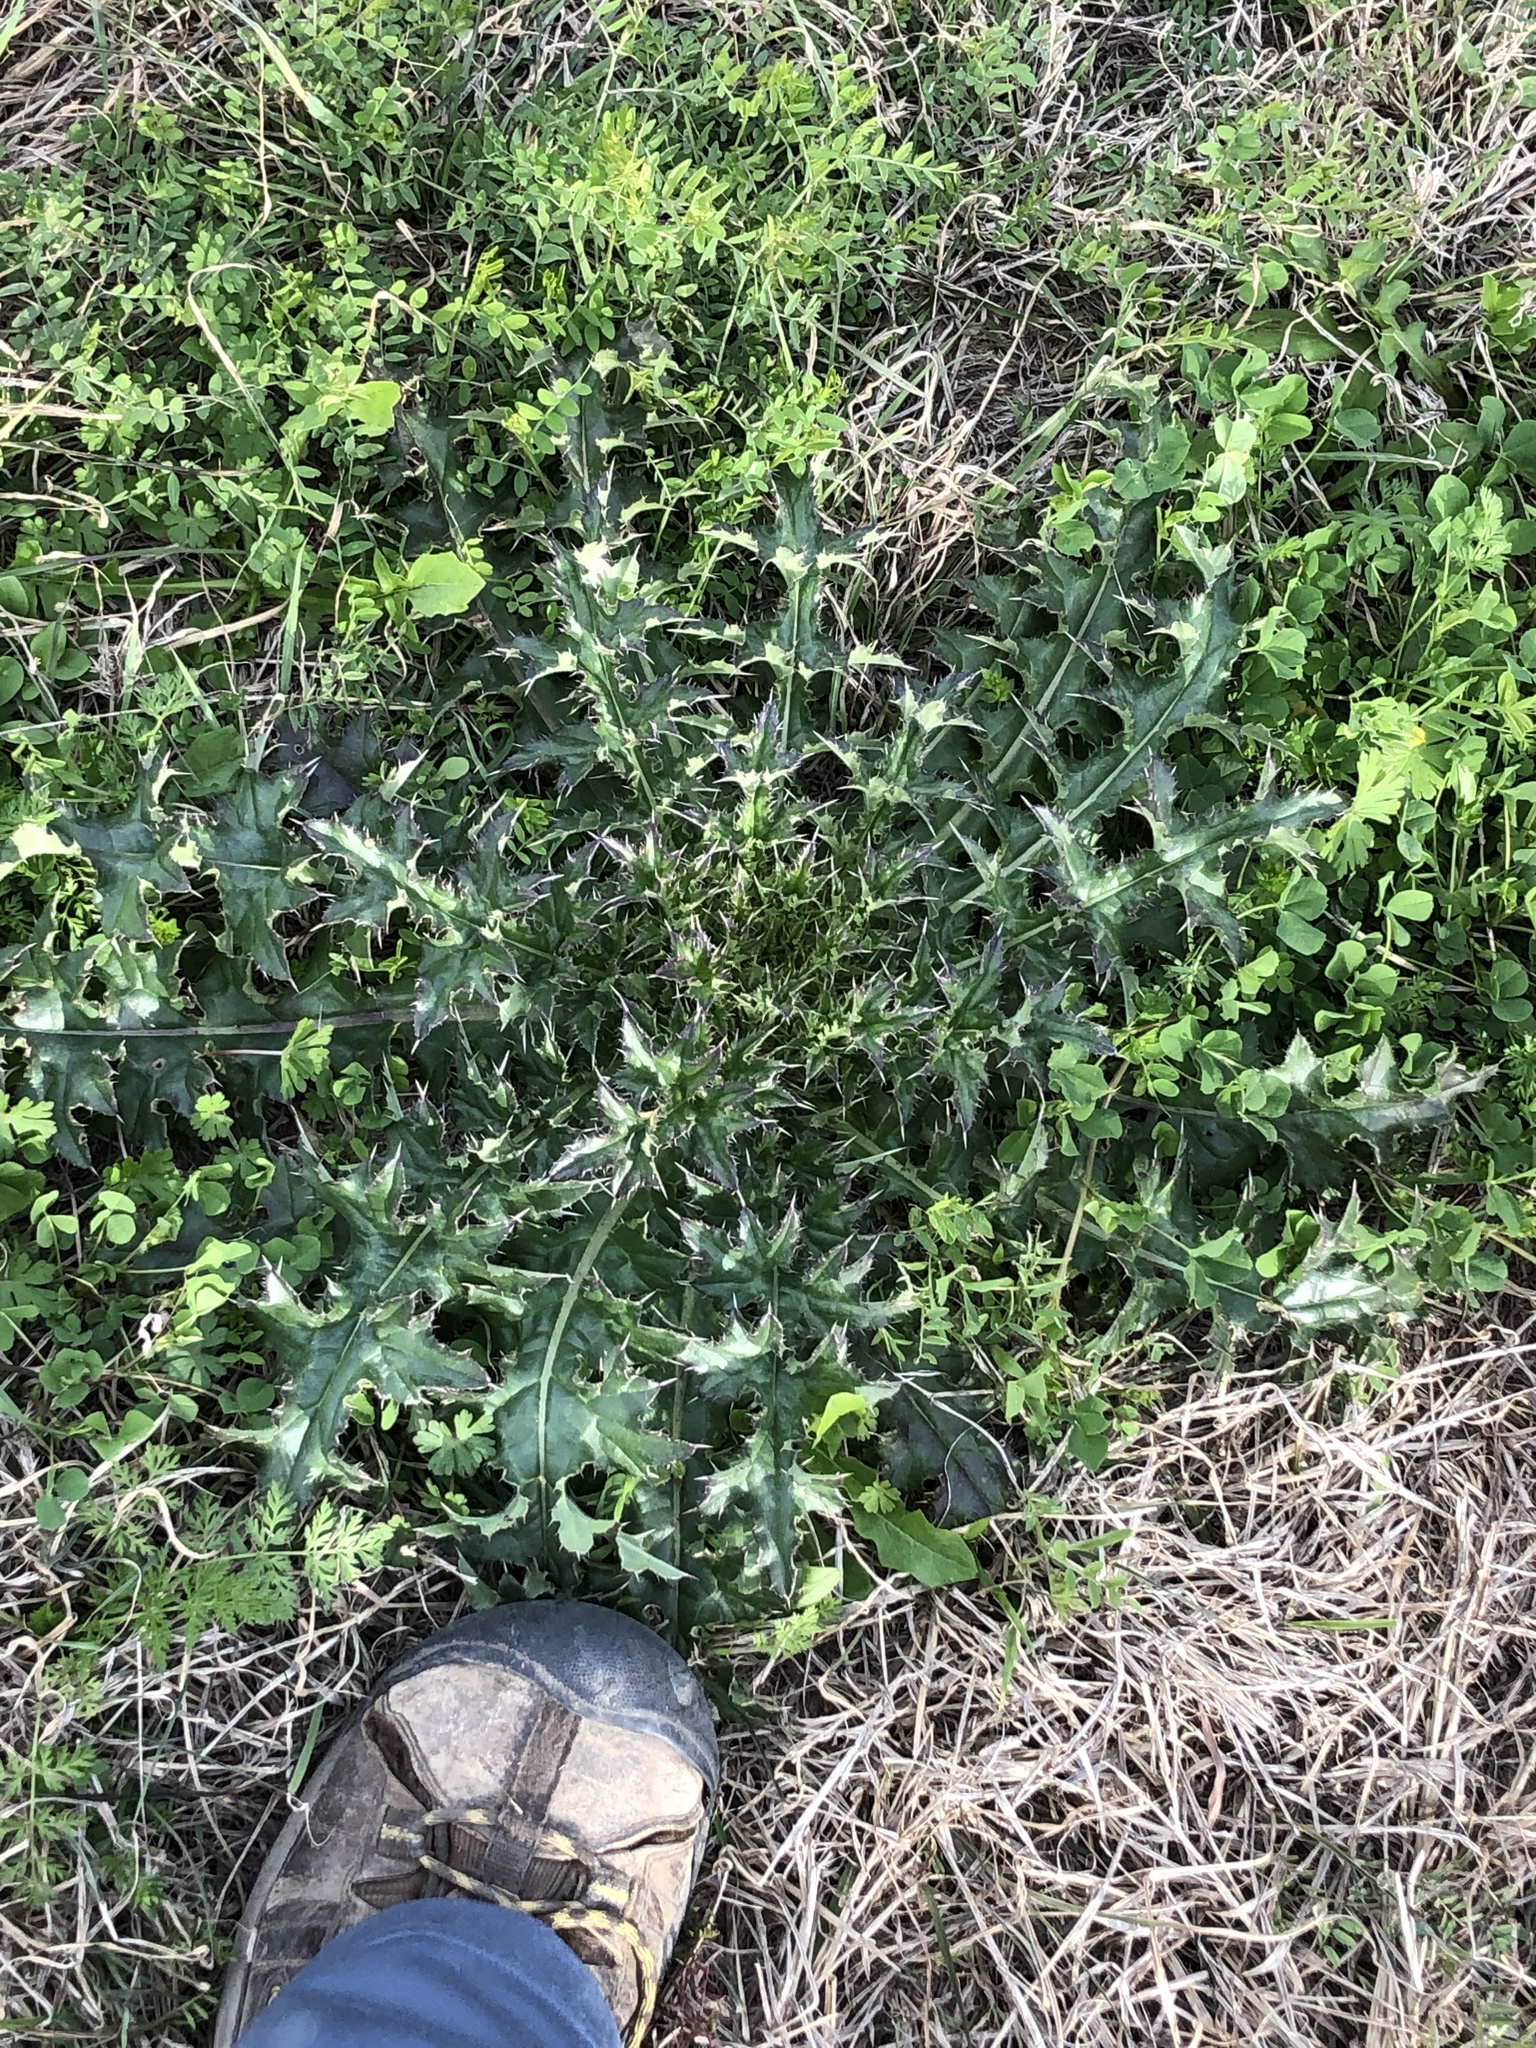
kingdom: Plantae
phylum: Tracheophyta
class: Magnoliopsida
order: Asterales
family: Asteraceae
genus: Cirsium
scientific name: Cirsium horridulum
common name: Bristly thistle
